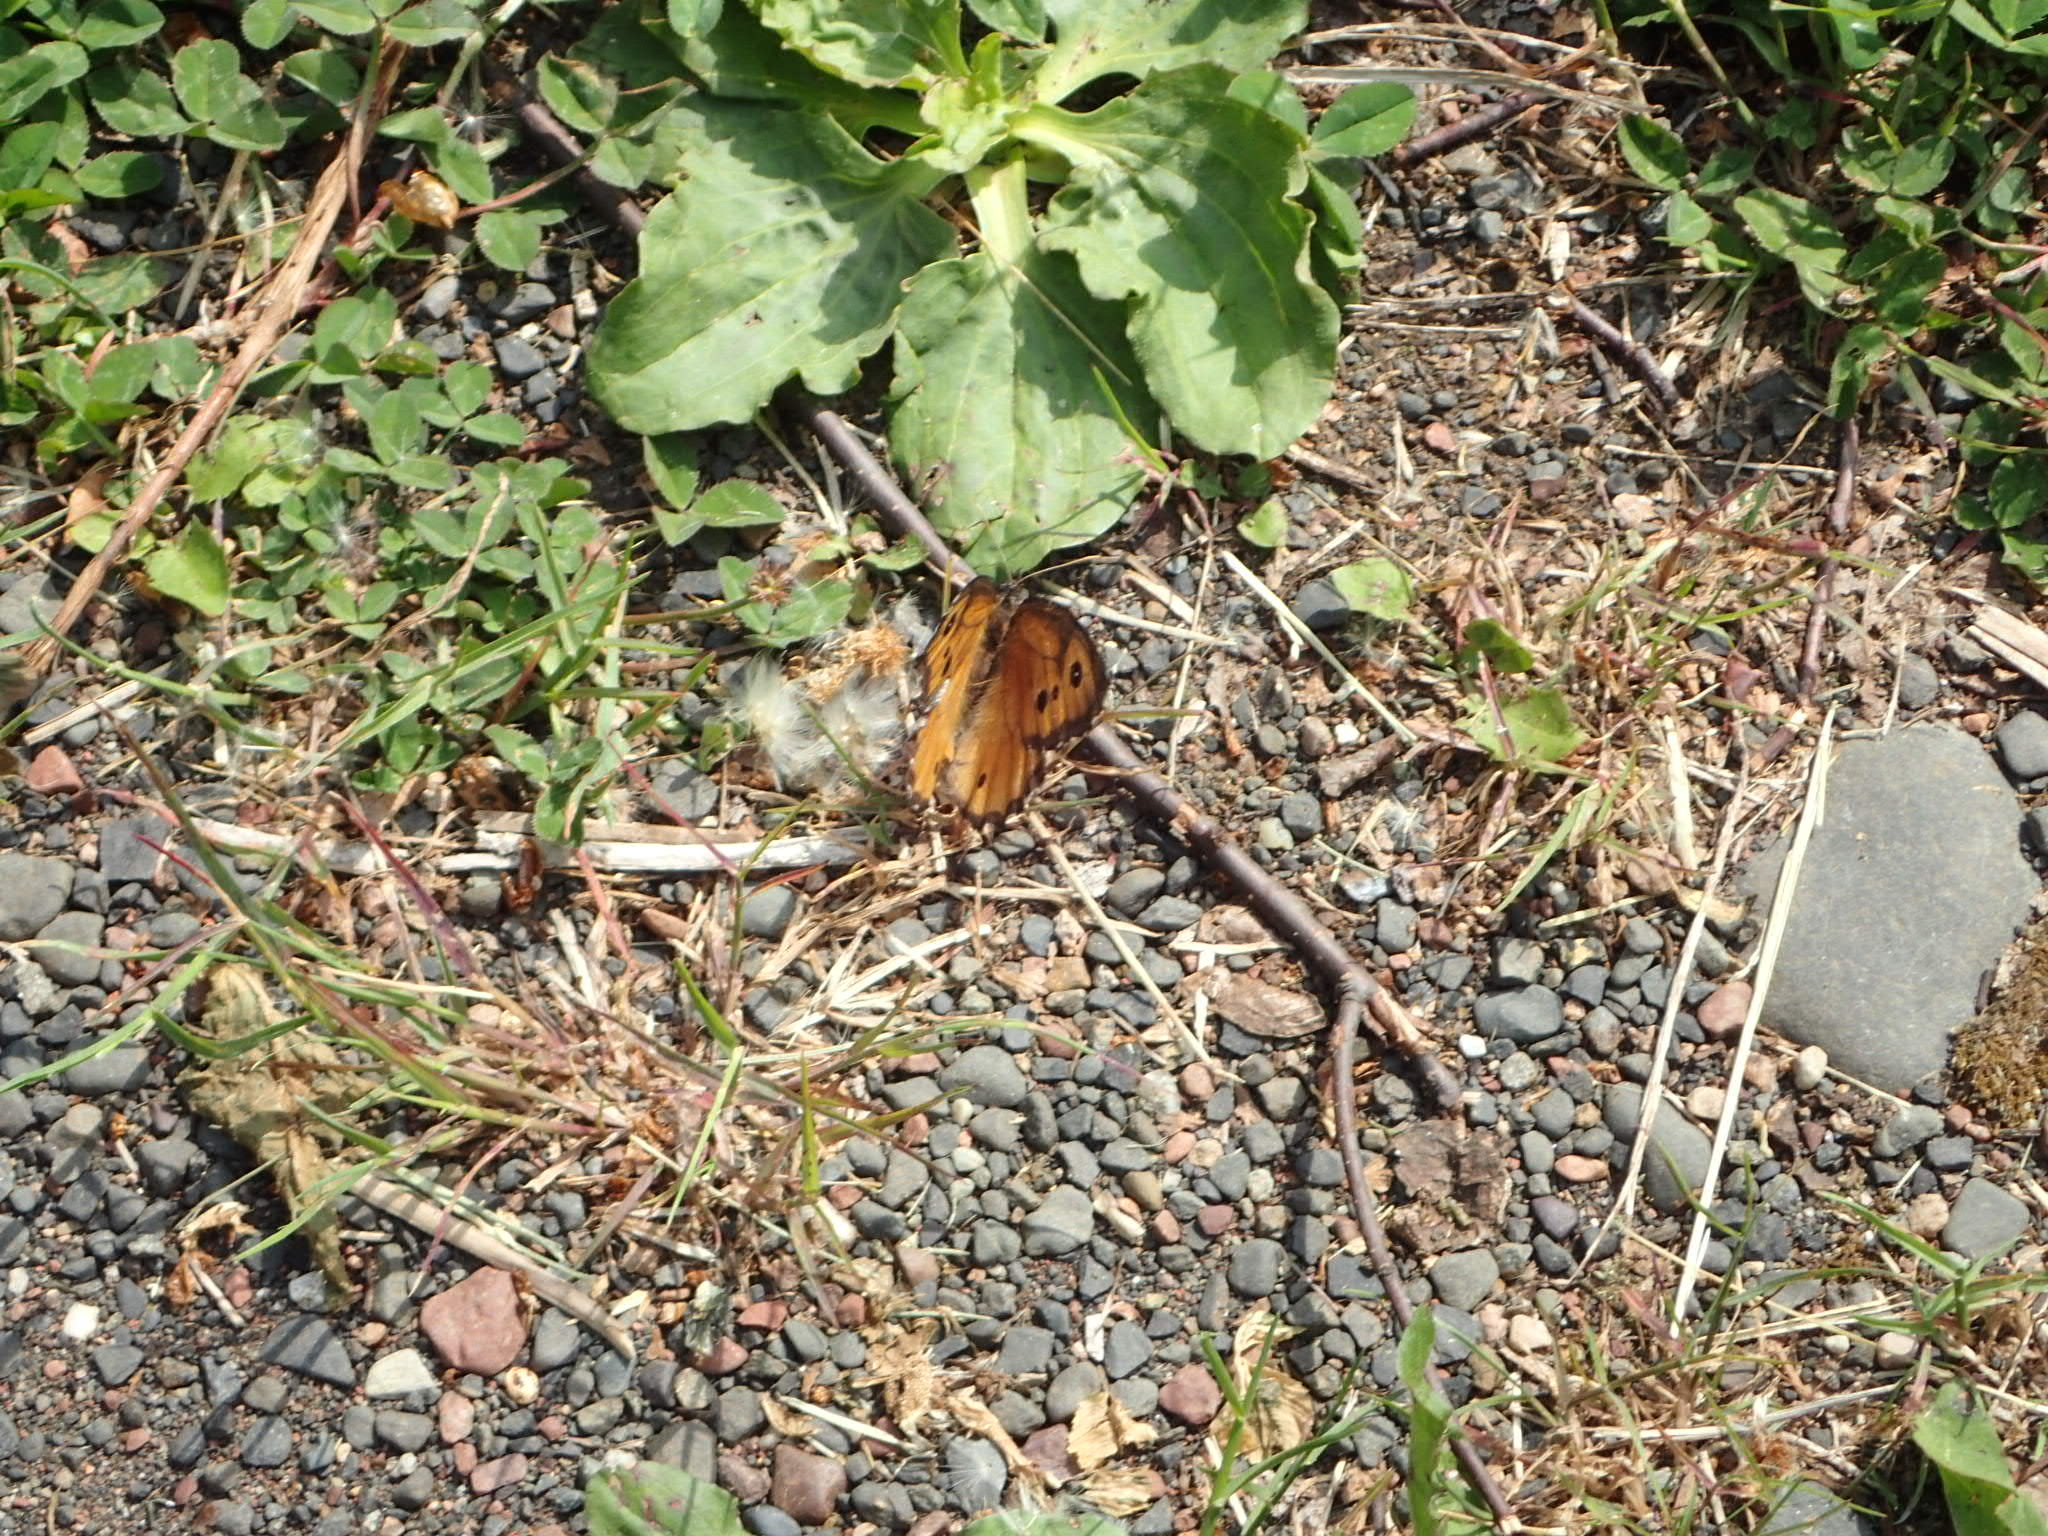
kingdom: Animalia
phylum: Arthropoda
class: Insecta
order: Lepidoptera
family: Nymphalidae
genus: Oeneis
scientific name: Oeneis macounii
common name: Macoun's arctic
